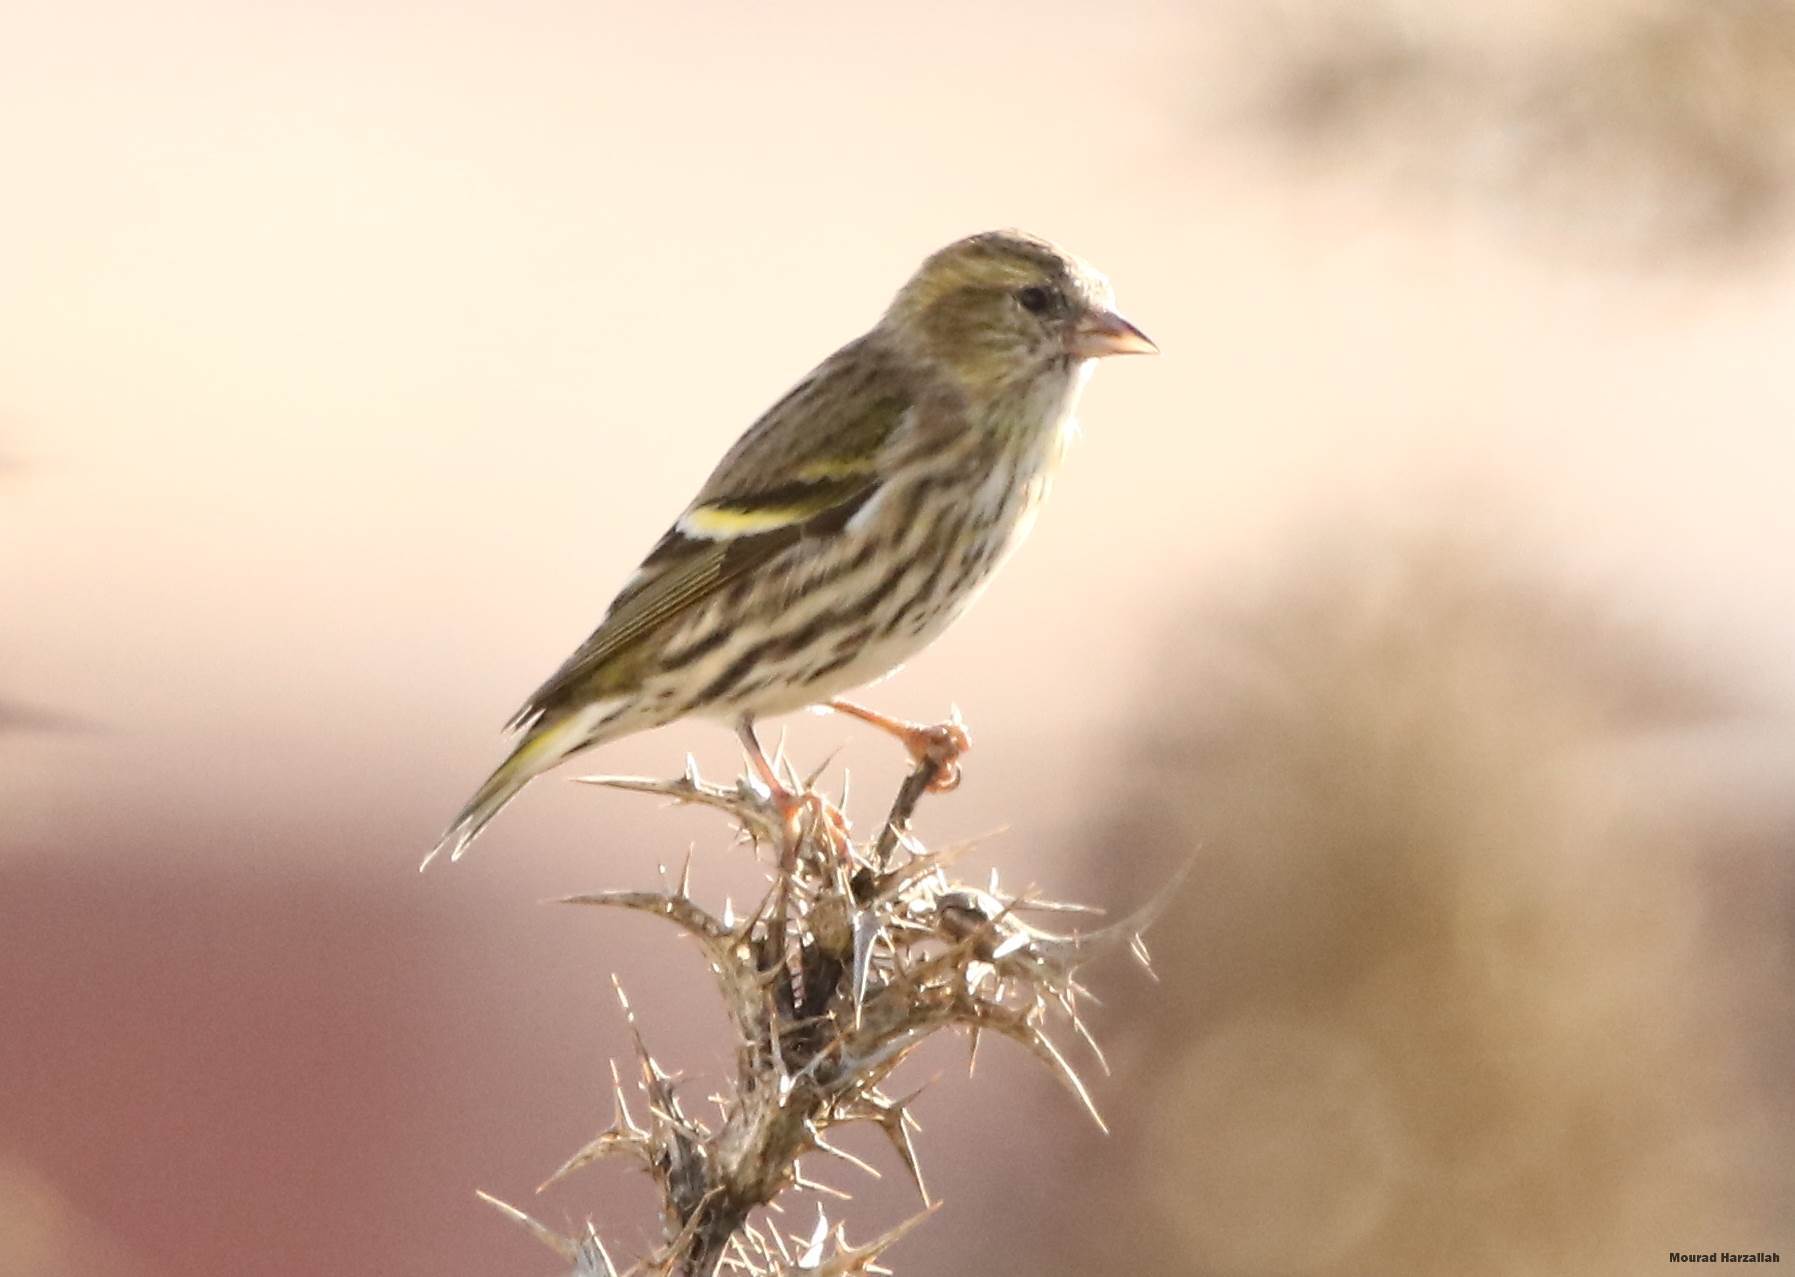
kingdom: Animalia
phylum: Chordata
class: Aves
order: Passeriformes
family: Fringillidae
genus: Spinus
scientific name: Spinus spinus
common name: Eurasian siskin
